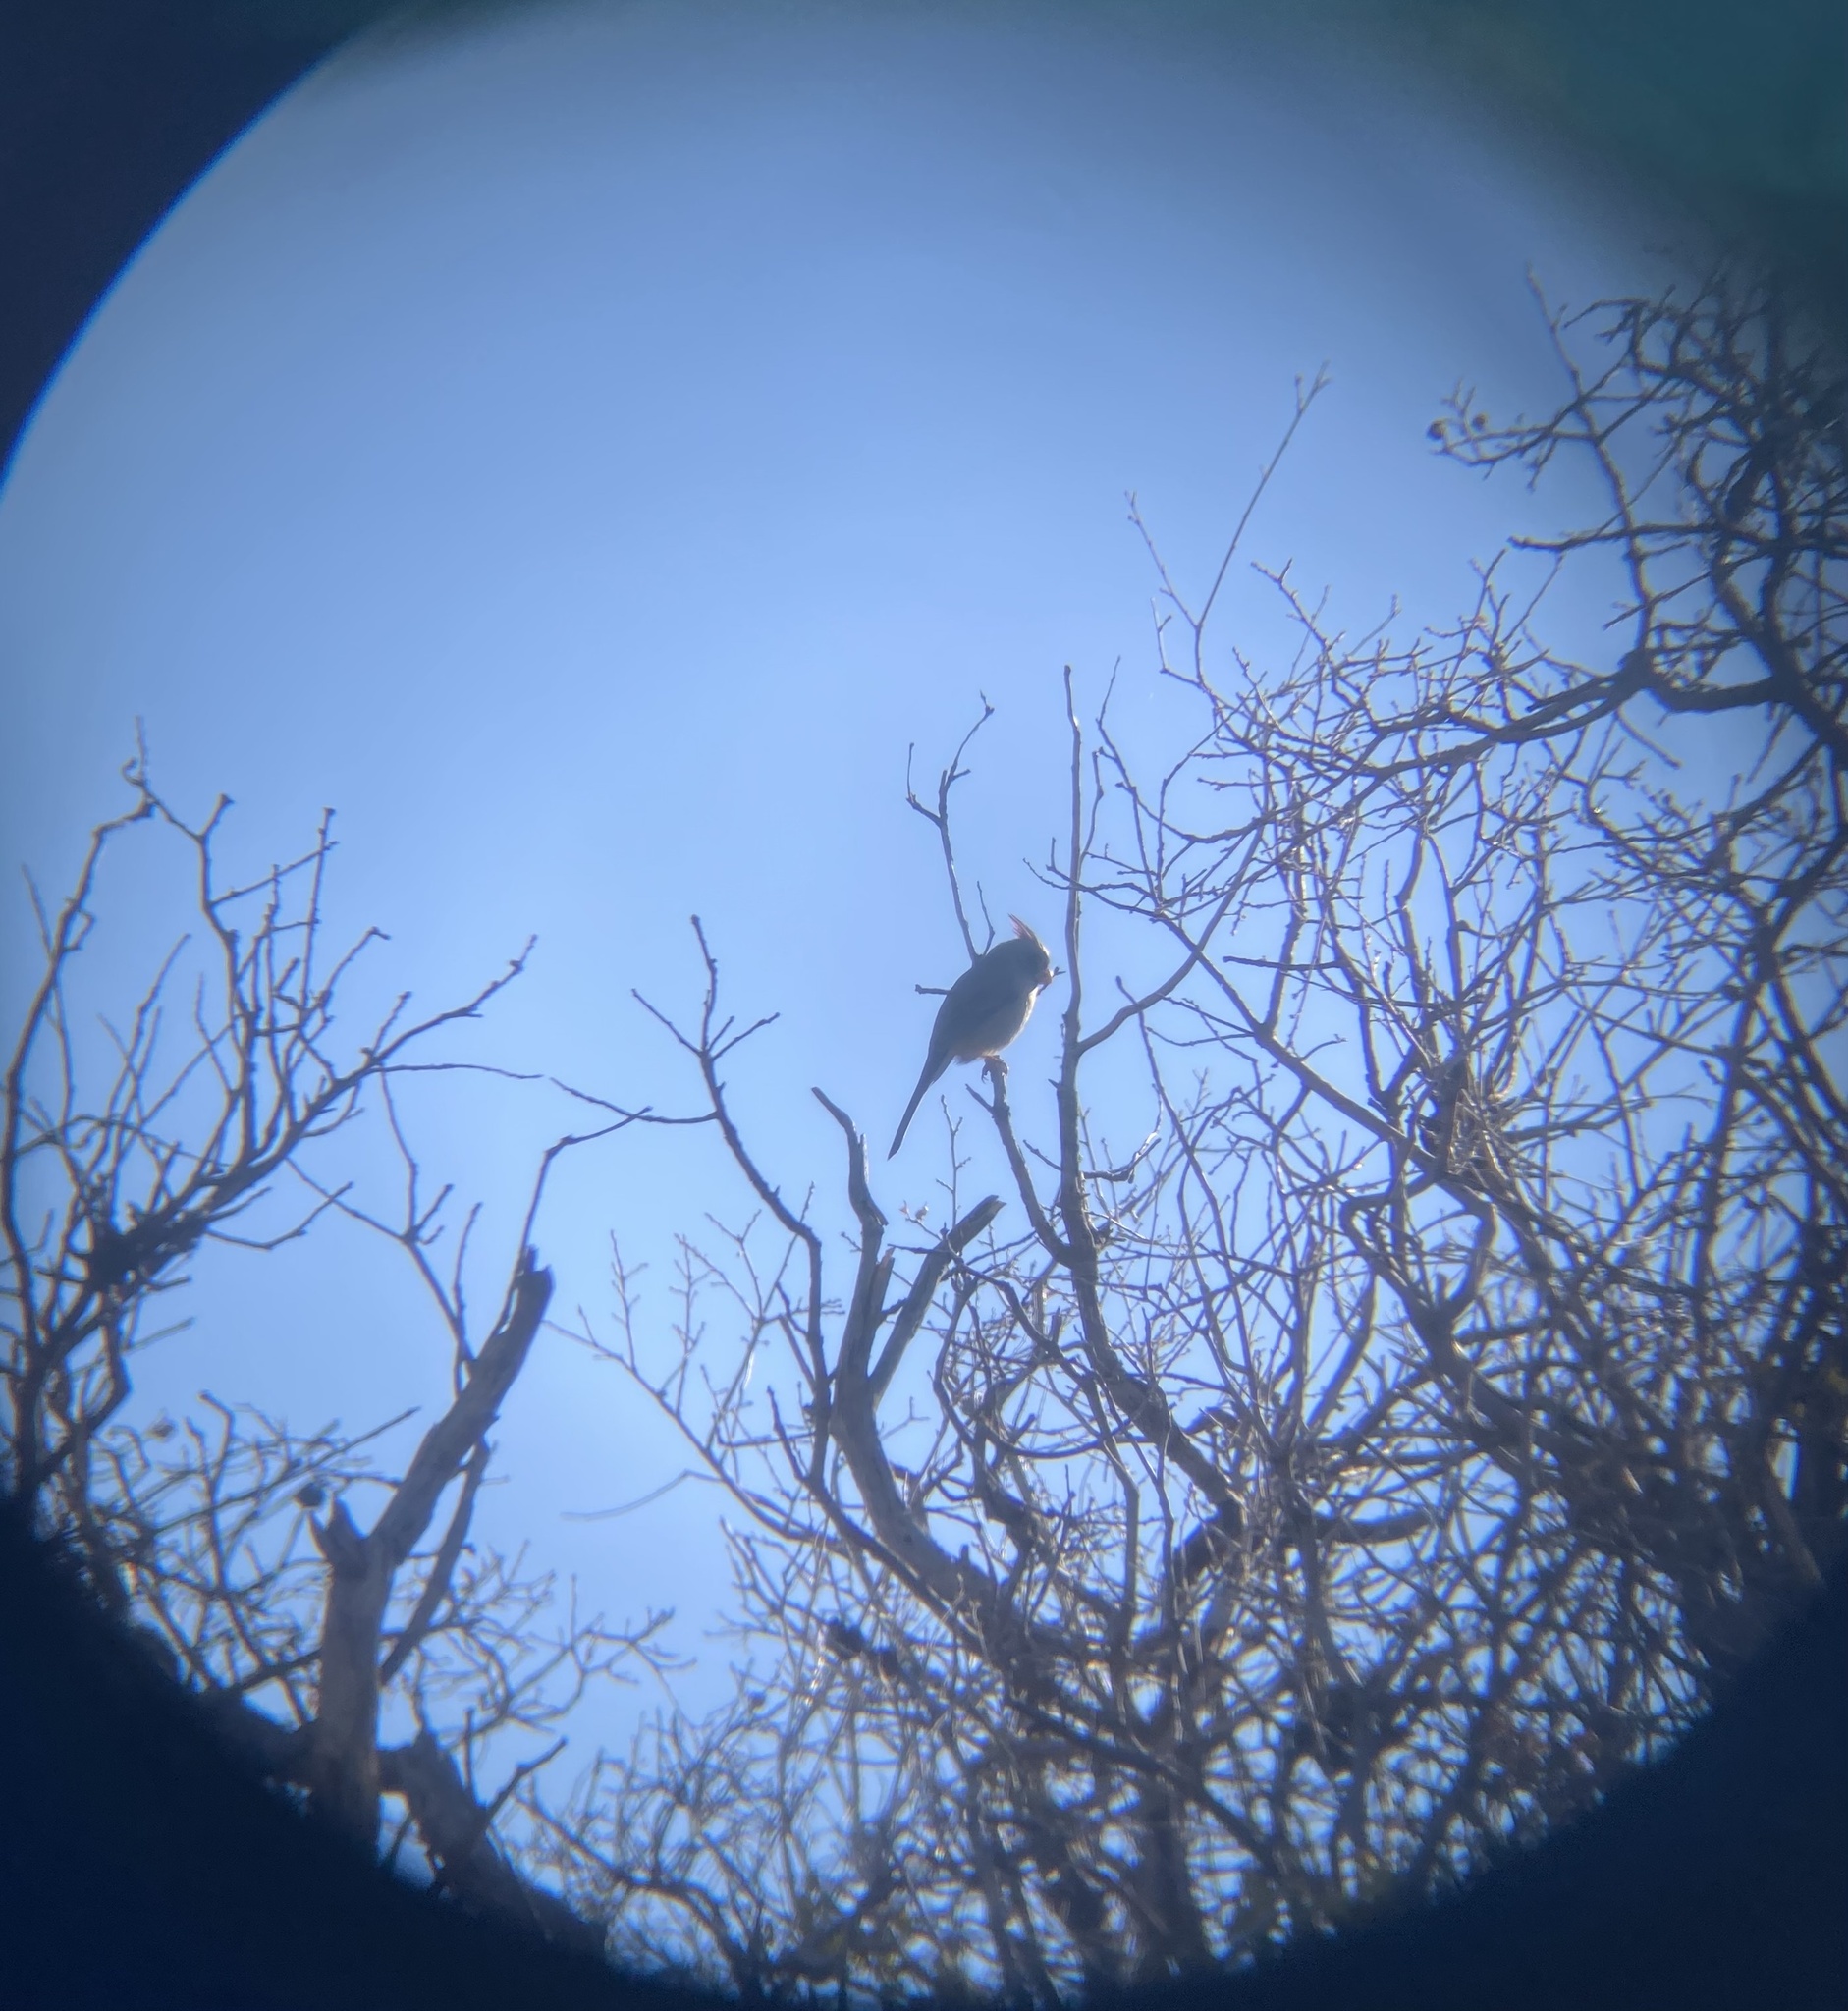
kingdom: Animalia
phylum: Chordata
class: Aves
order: Passeriformes
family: Cardinalidae
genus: Cardinalis
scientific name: Cardinalis sinuatus
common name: Pyrrhuloxia
